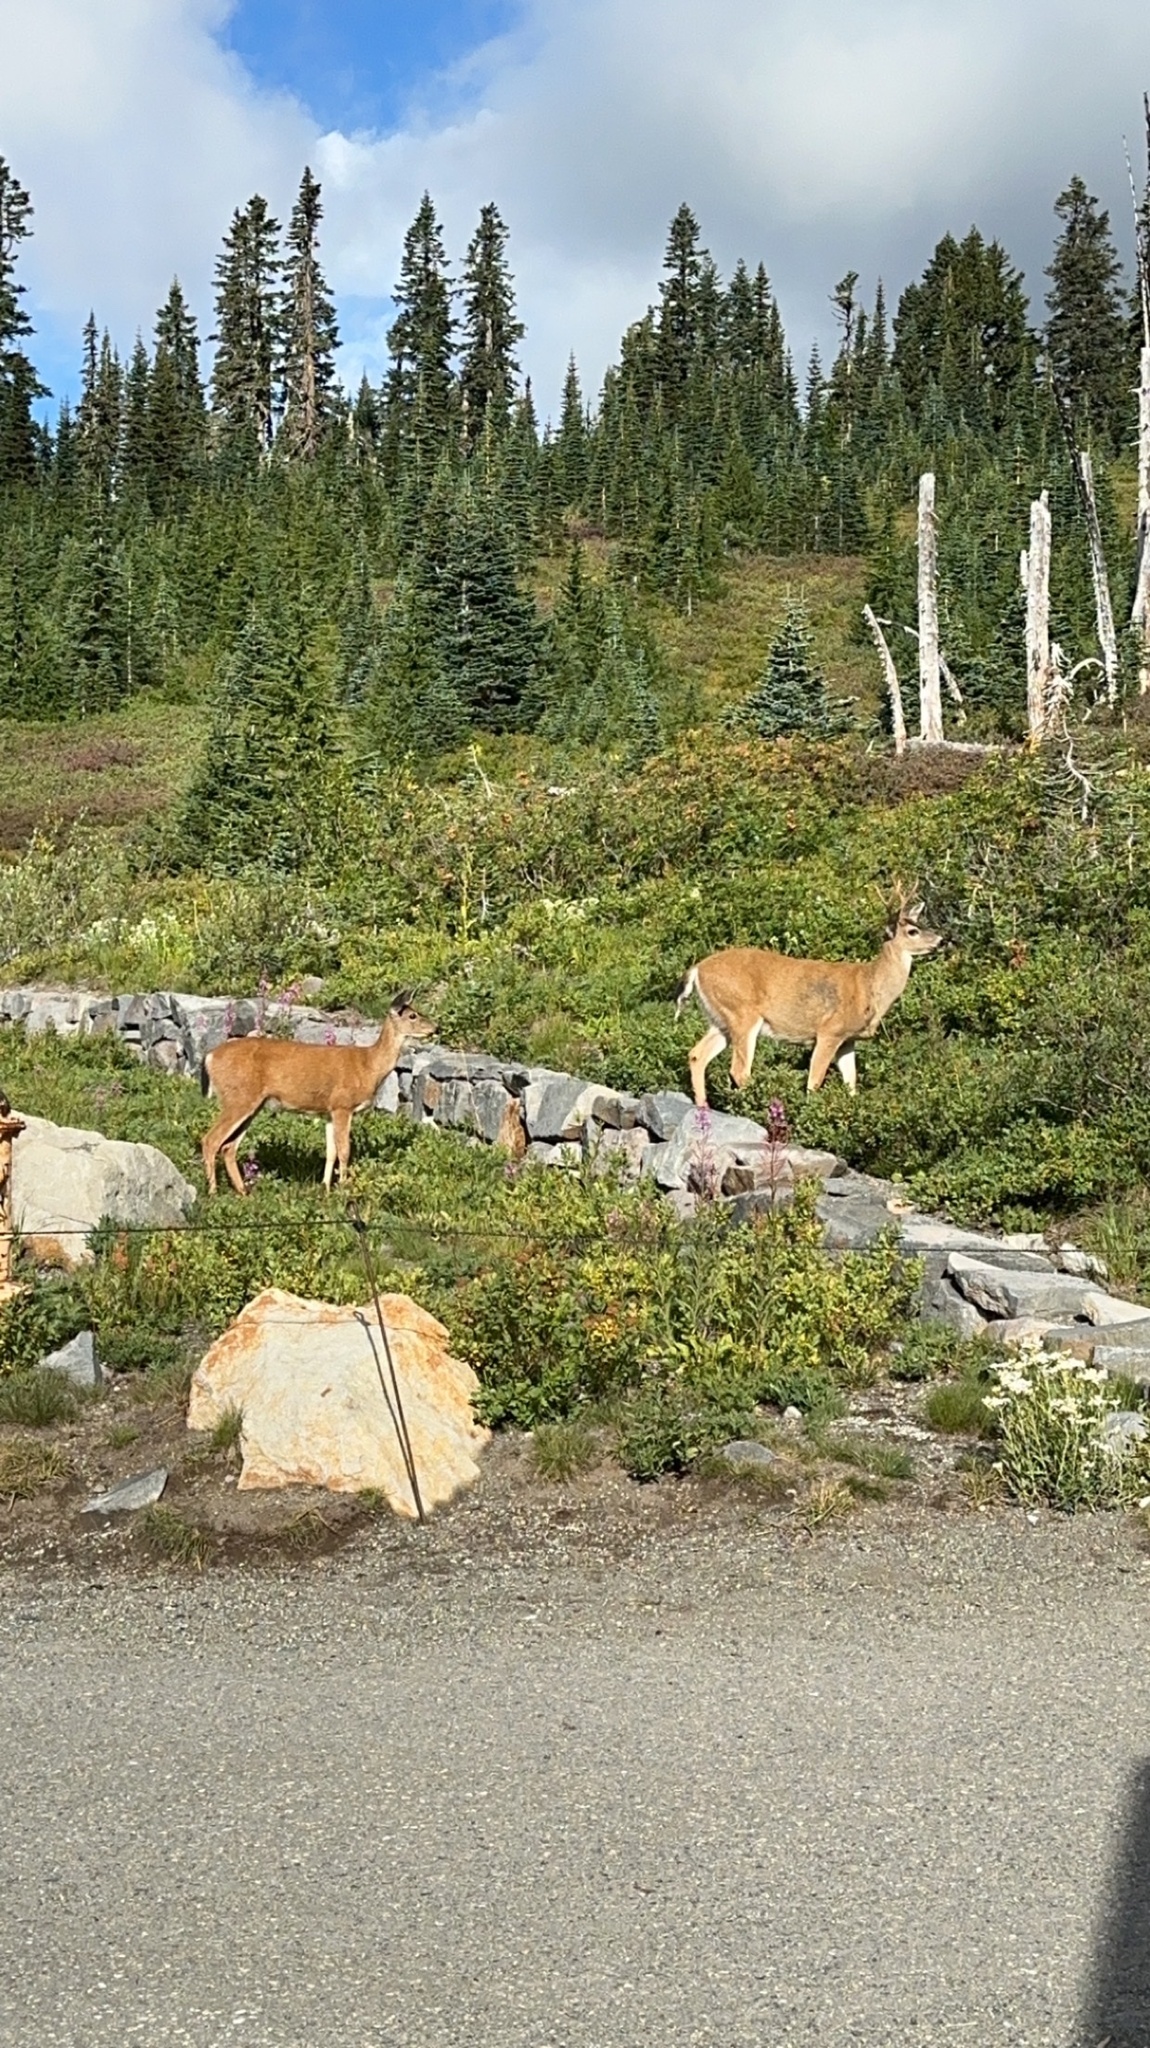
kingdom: Animalia
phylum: Chordata
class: Mammalia
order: Artiodactyla
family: Cervidae
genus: Odocoileus
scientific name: Odocoileus hemionus
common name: Mule deer
